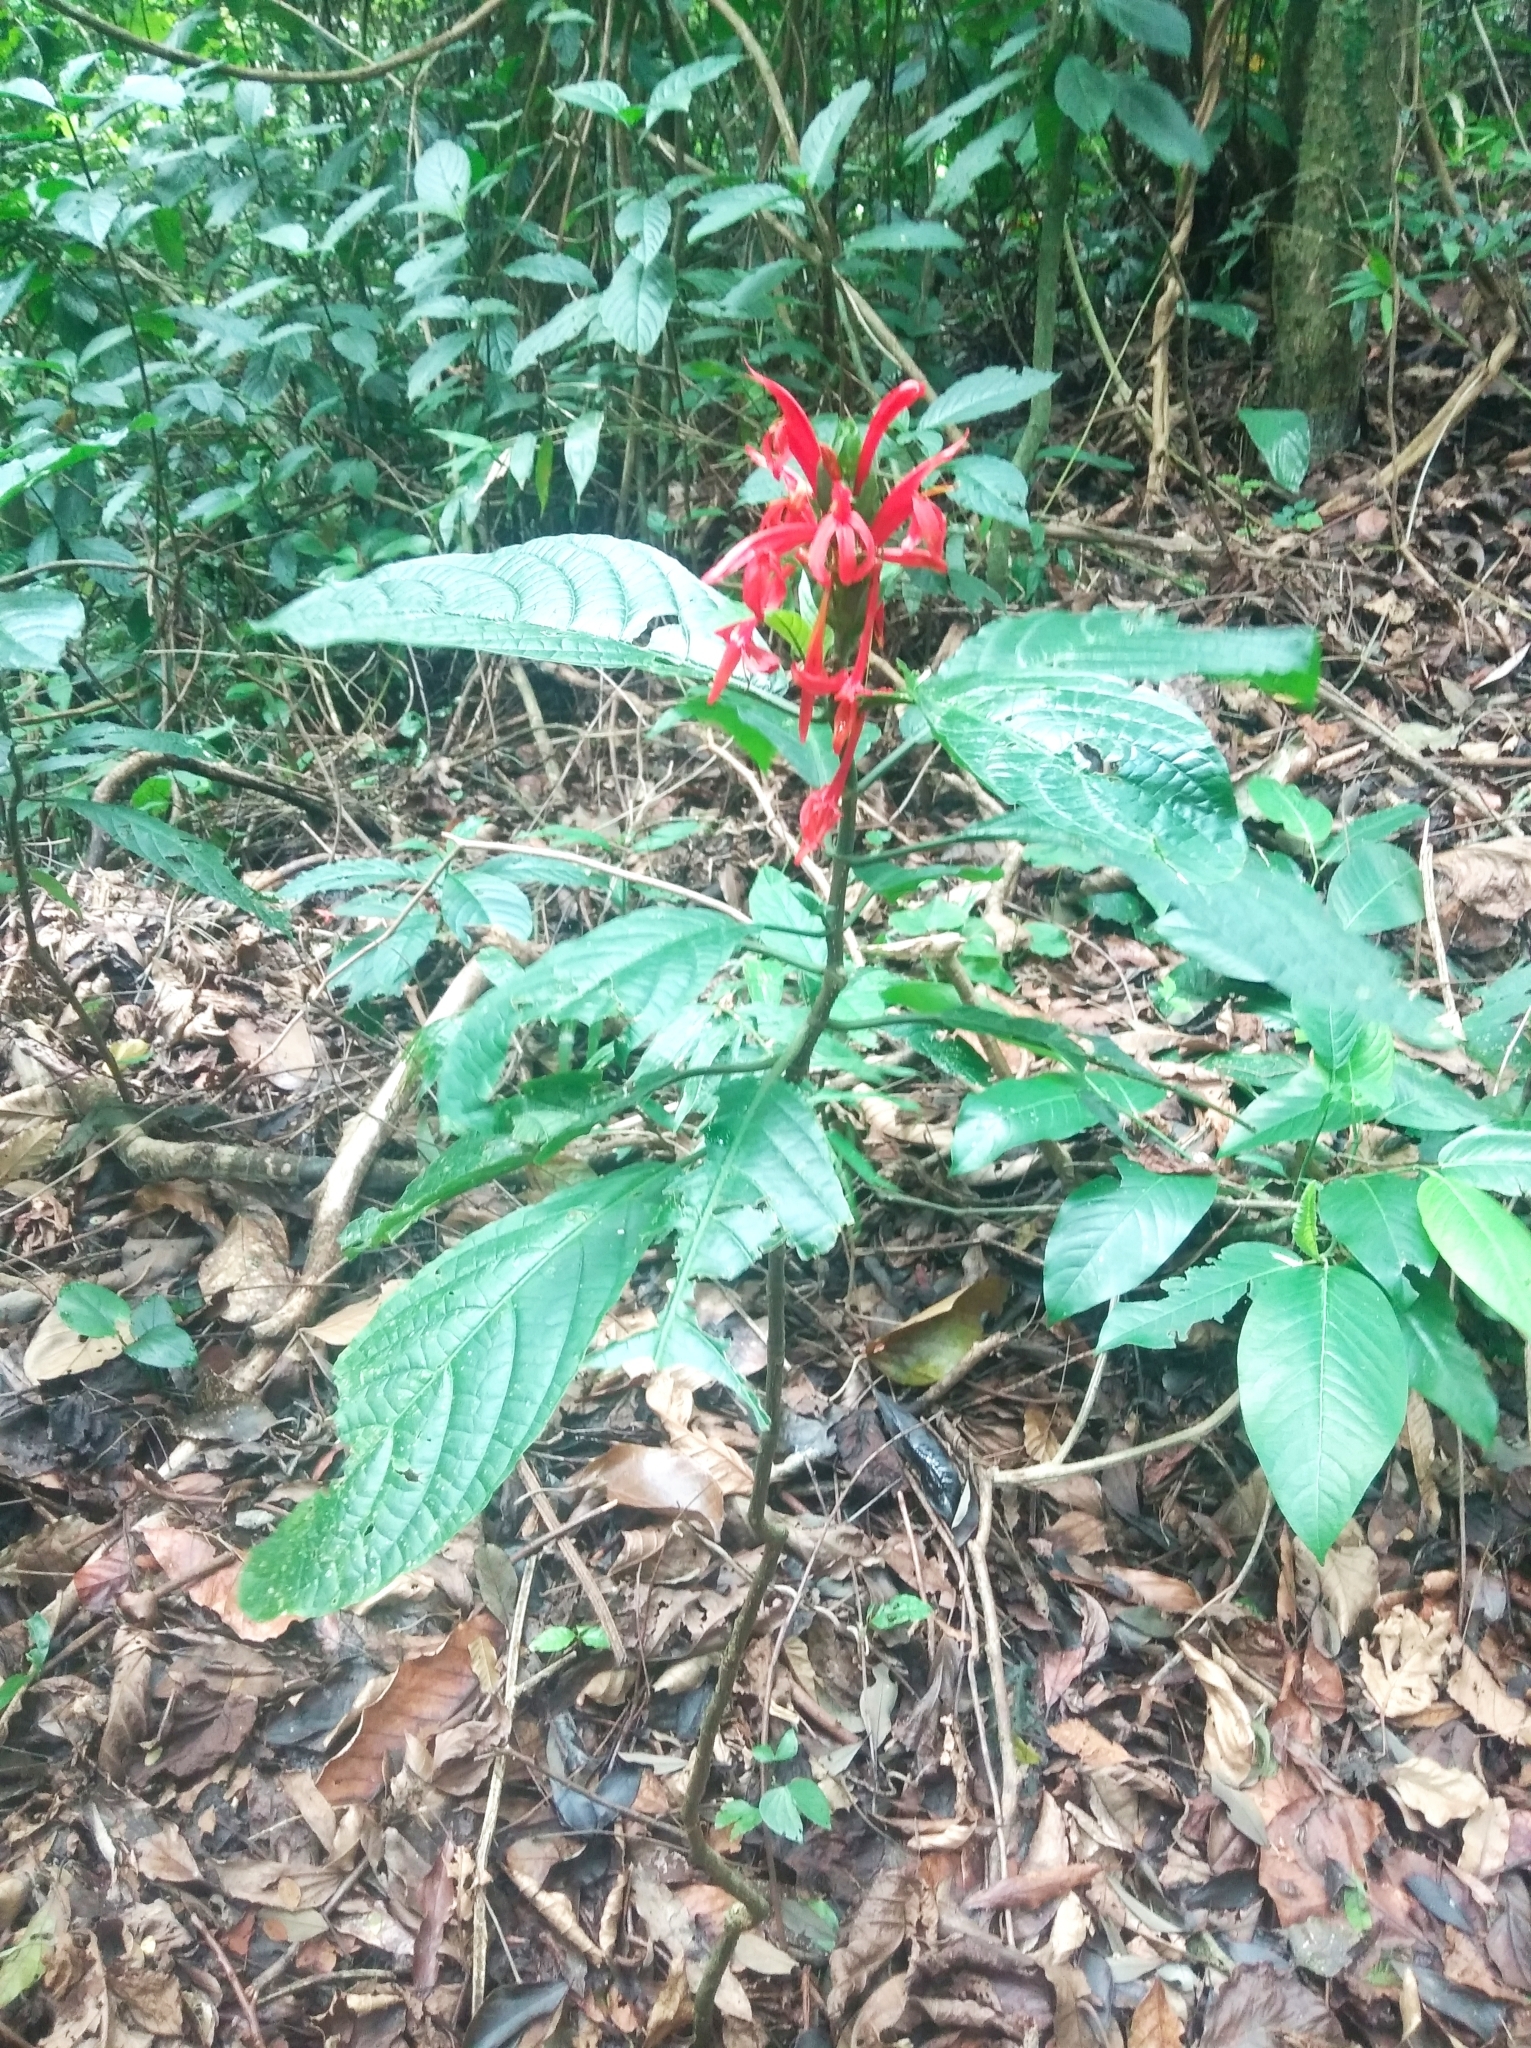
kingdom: Plantae
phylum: Tracheophyta
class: Magnoliopsida
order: Lamiales
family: Acanthaceae
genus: Pachystachys
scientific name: Pachystachys spicata
